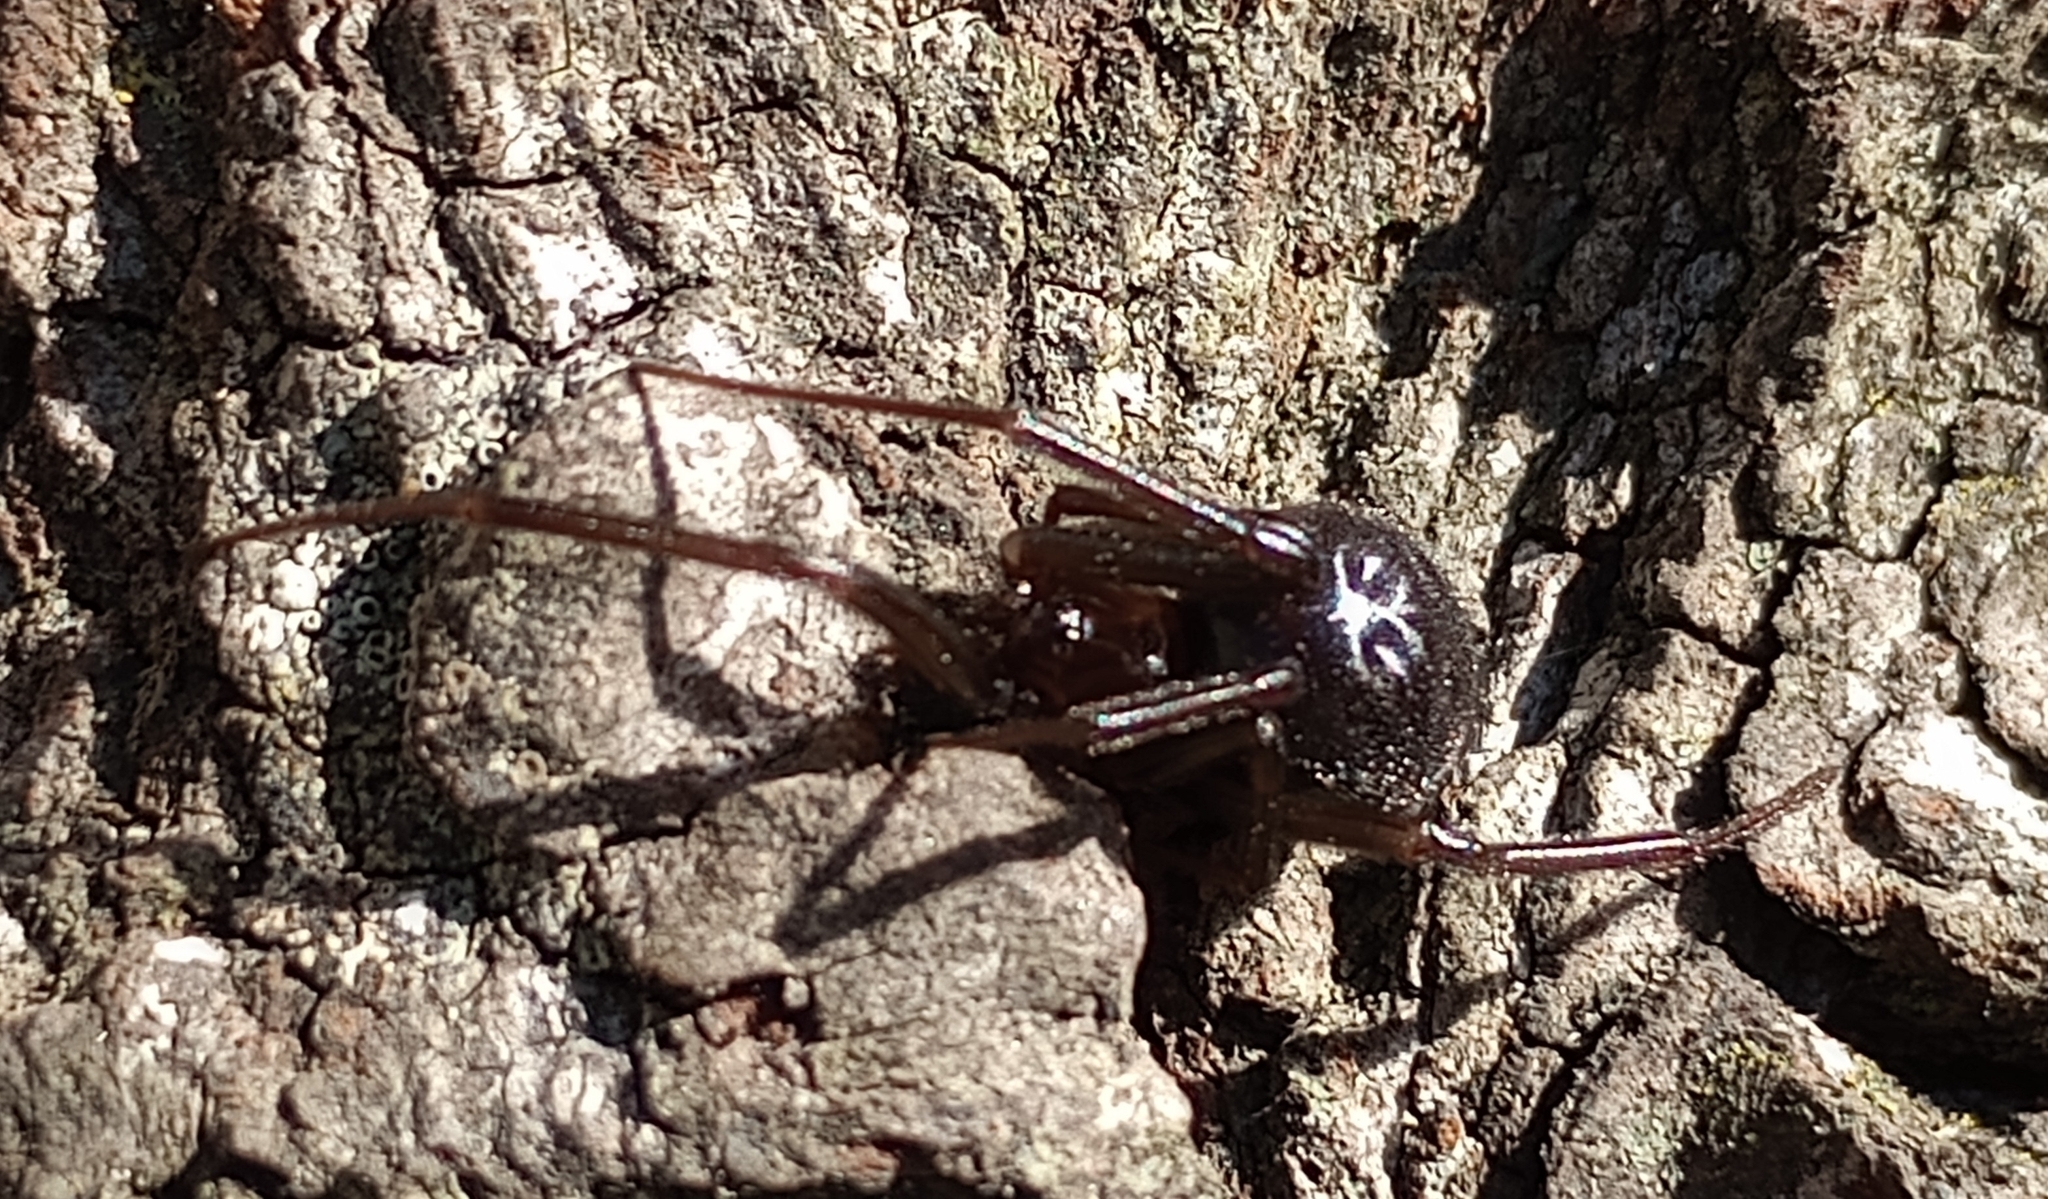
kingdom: Animalia
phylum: Arthropoda
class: Arachnida
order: Araneae
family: Theridiidae
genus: Steatoda
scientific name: Steatoda grossa
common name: False black widow
